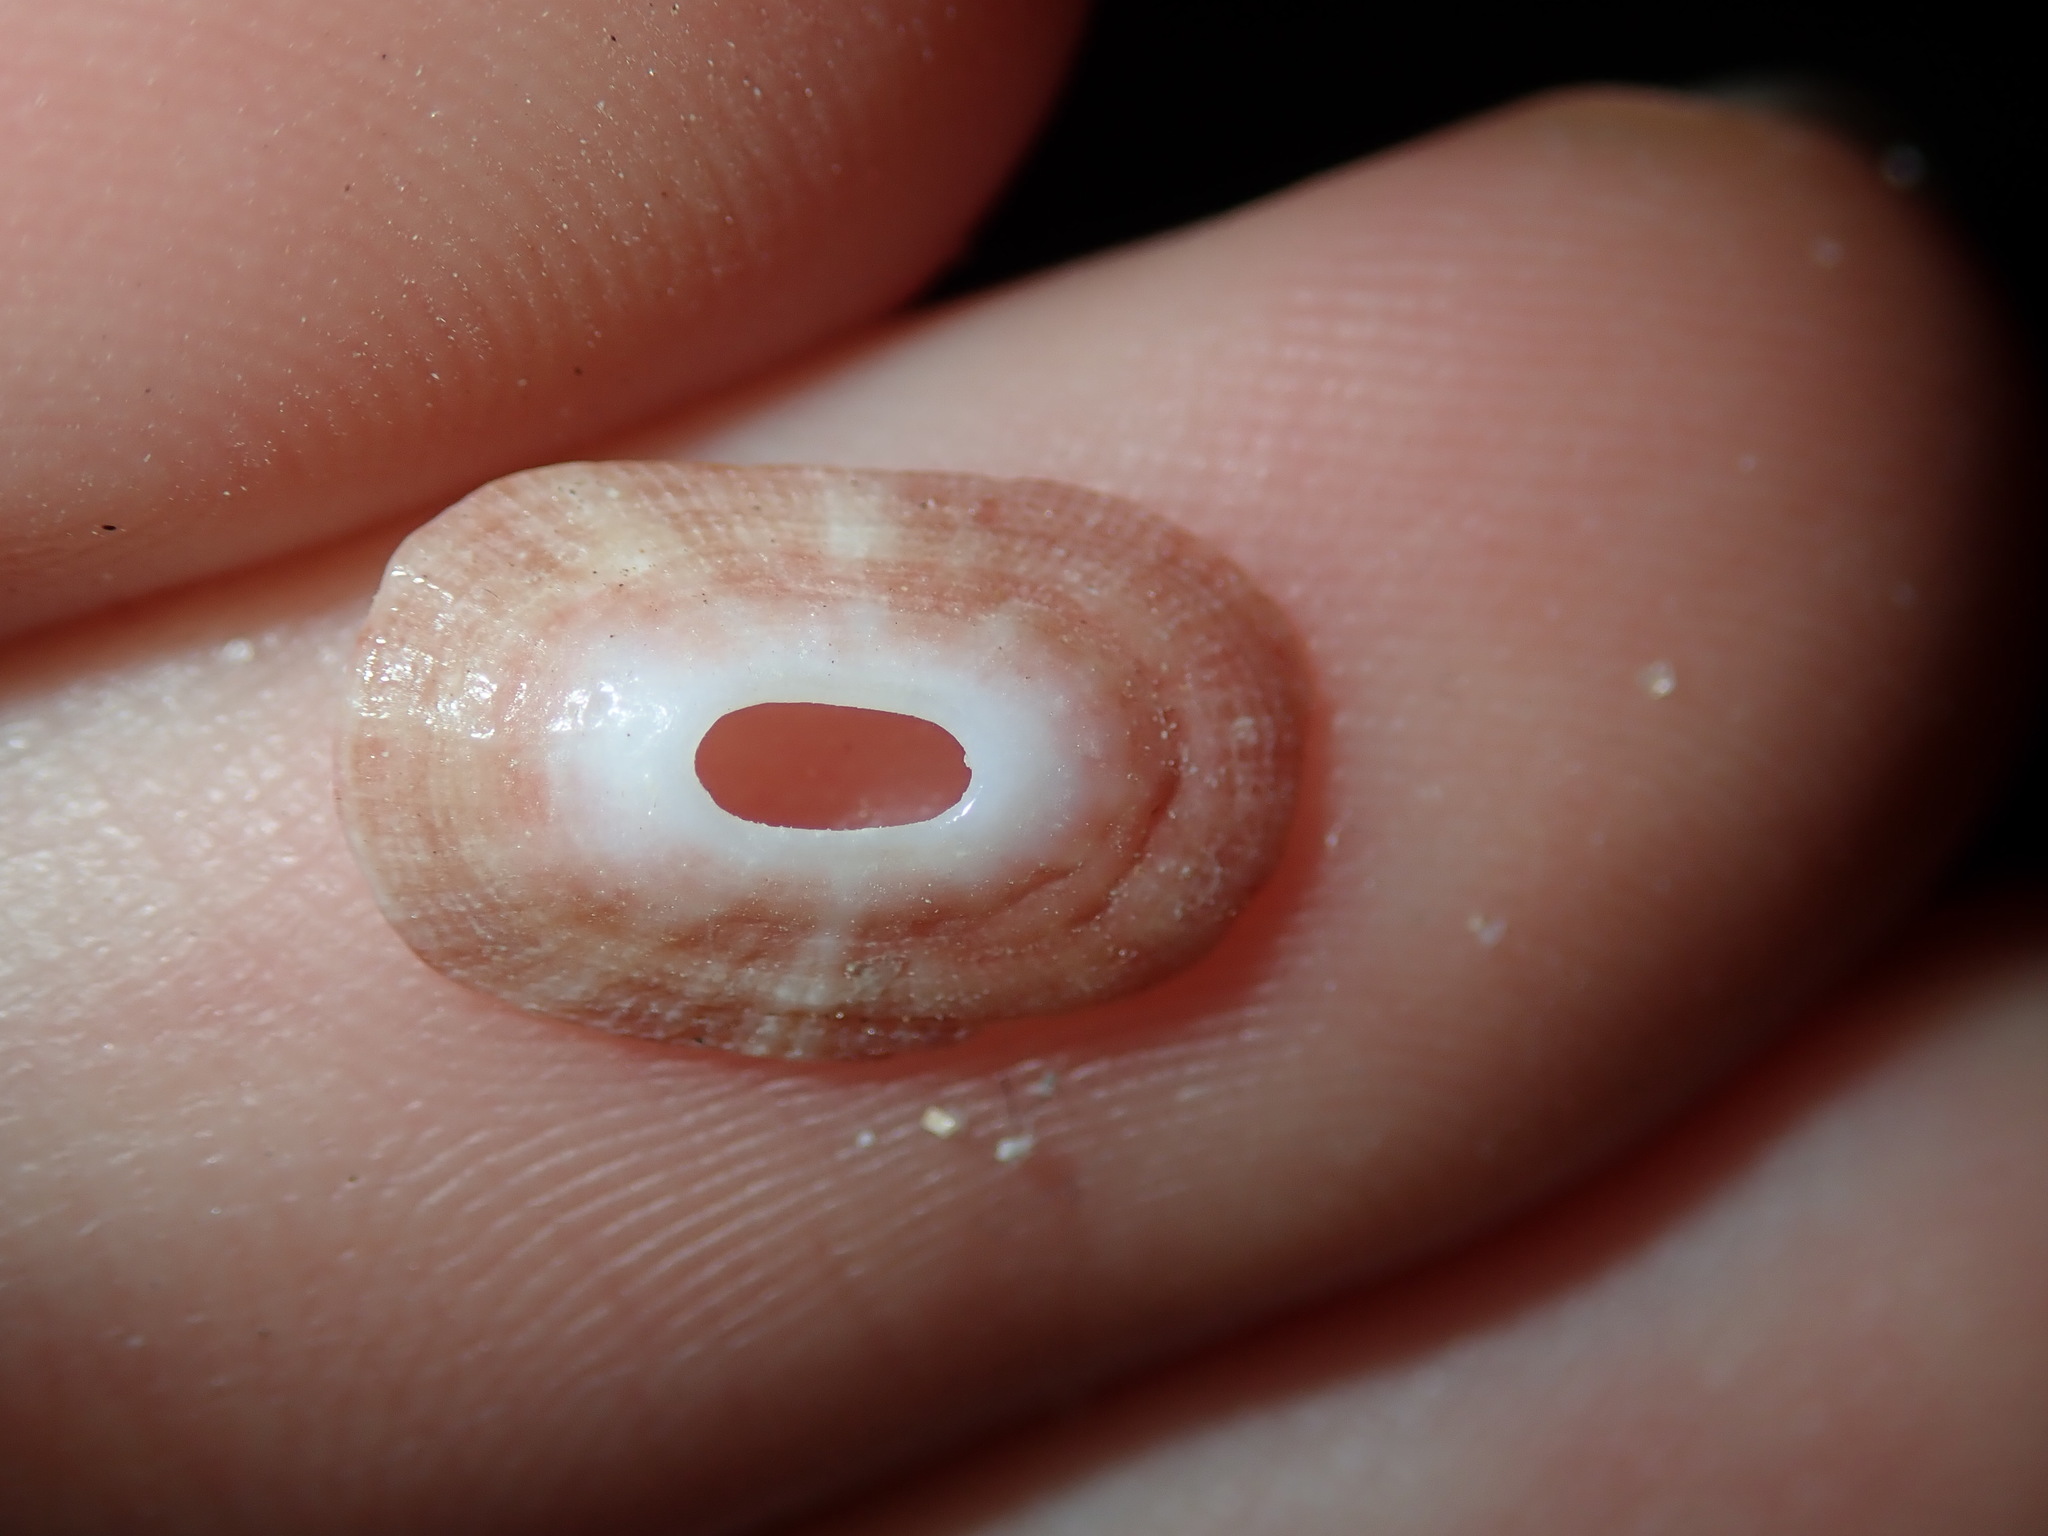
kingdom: Animalia
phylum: Mollusca
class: Gastropoda
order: Lepetellida
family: Fissurellidae
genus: Amblychilepas
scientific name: Amblychilepas nigrita
